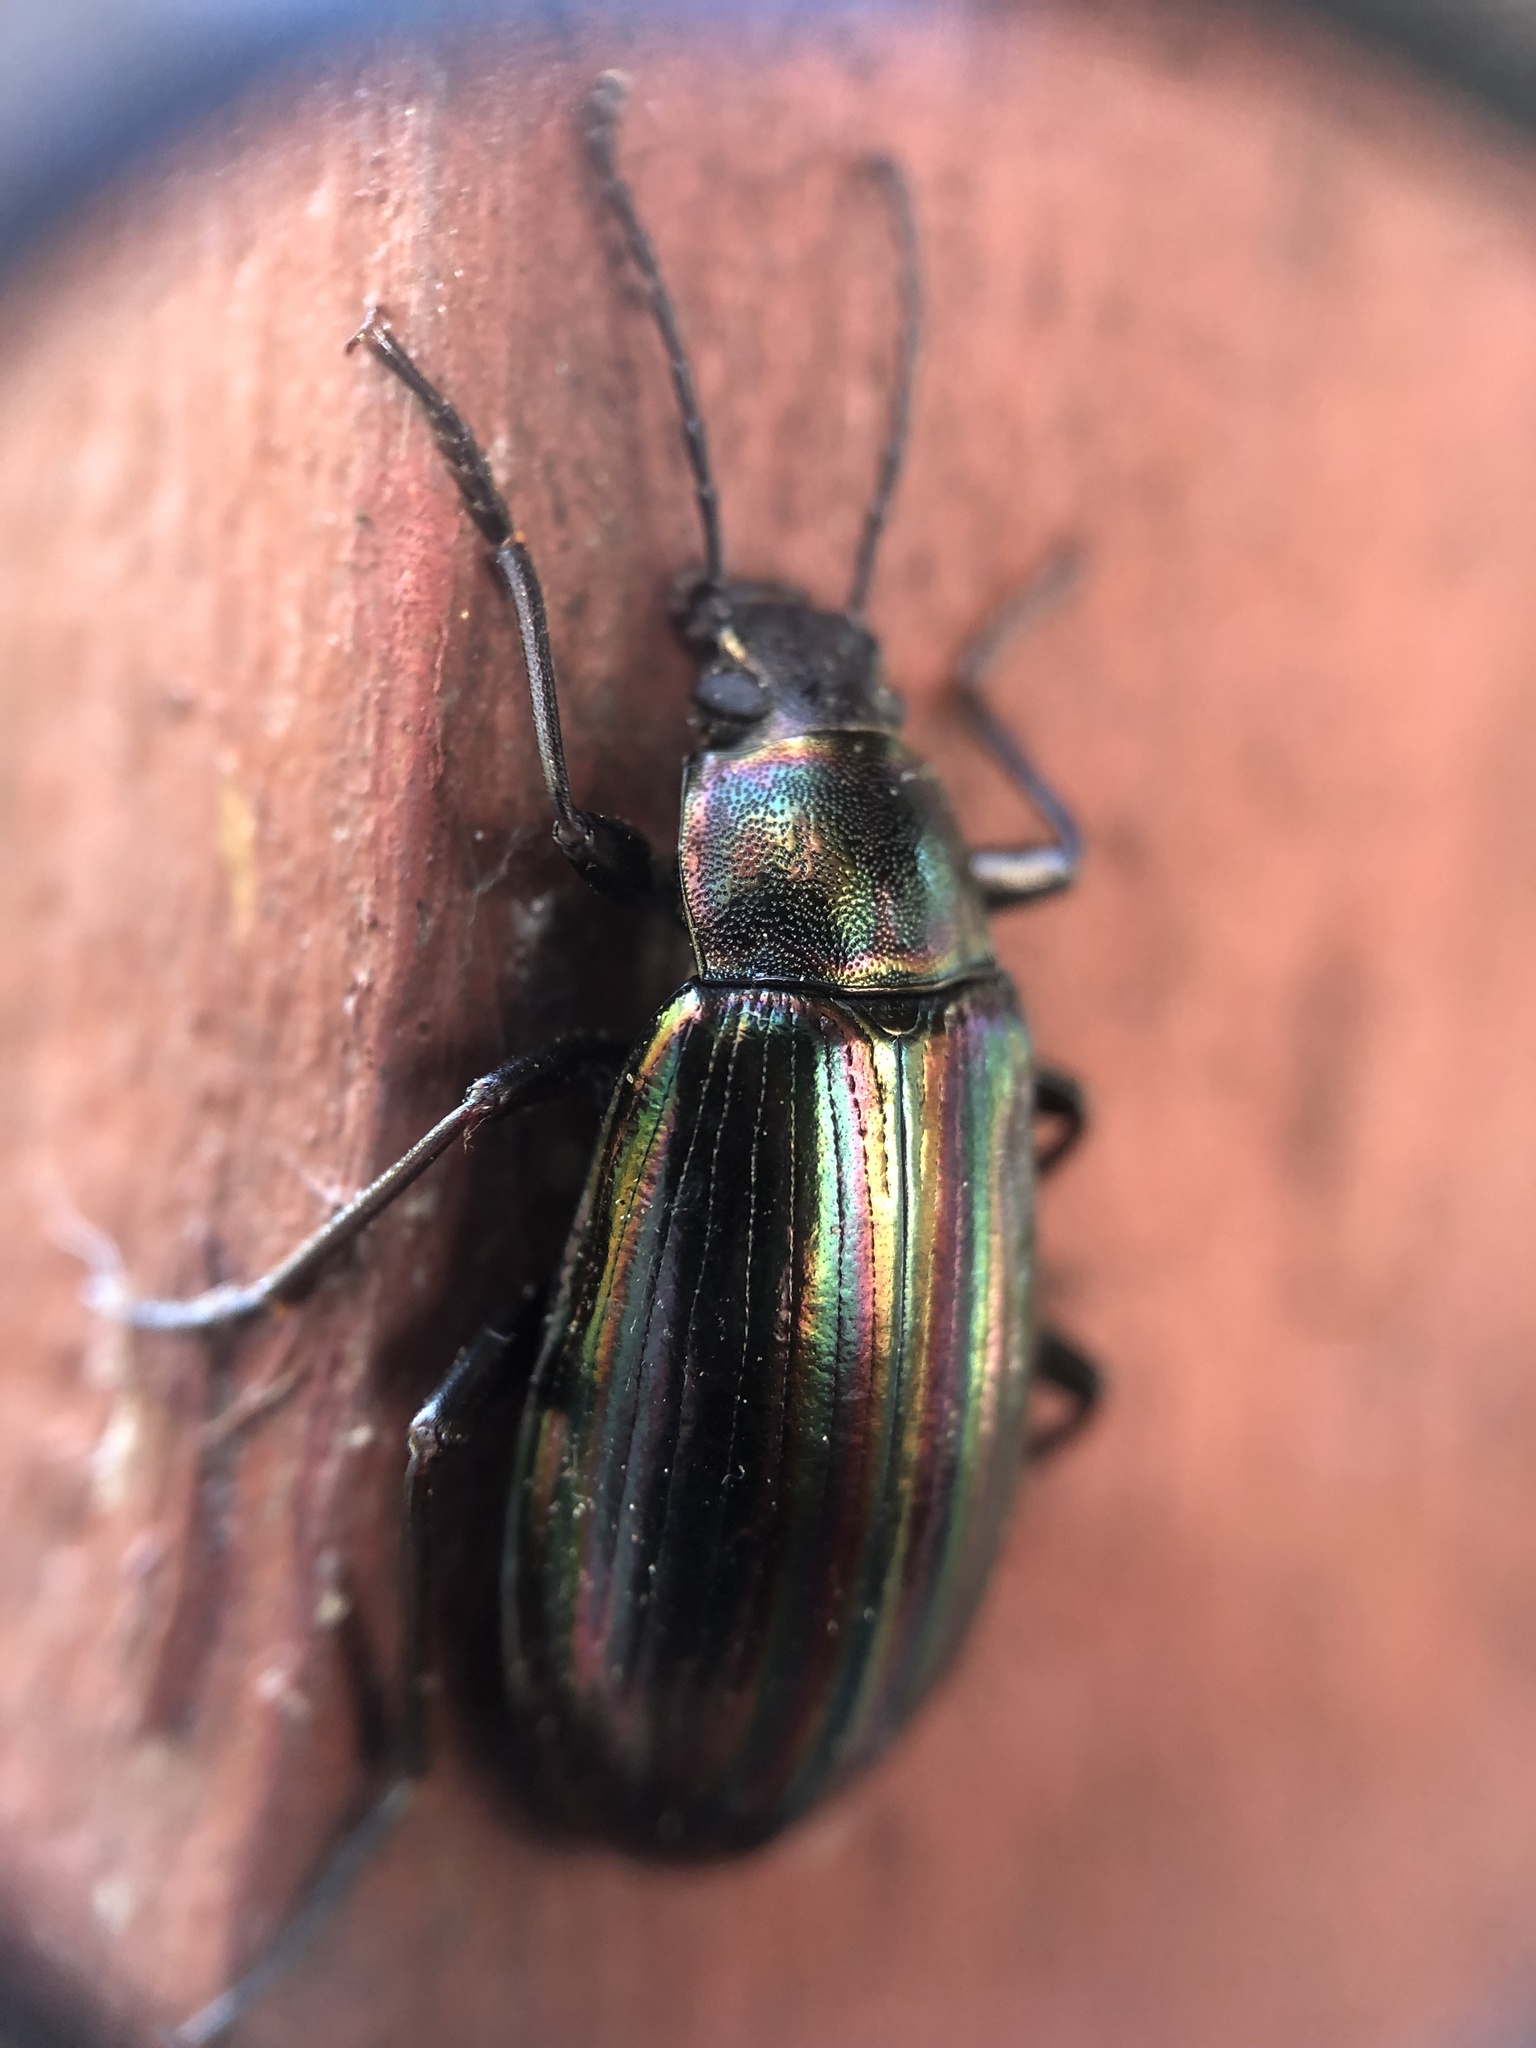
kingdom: Animalia
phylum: Arthropoda
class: Insecta
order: Coleoptera
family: Tenebrionidae
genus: Tarpela
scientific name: Tarpela micans
